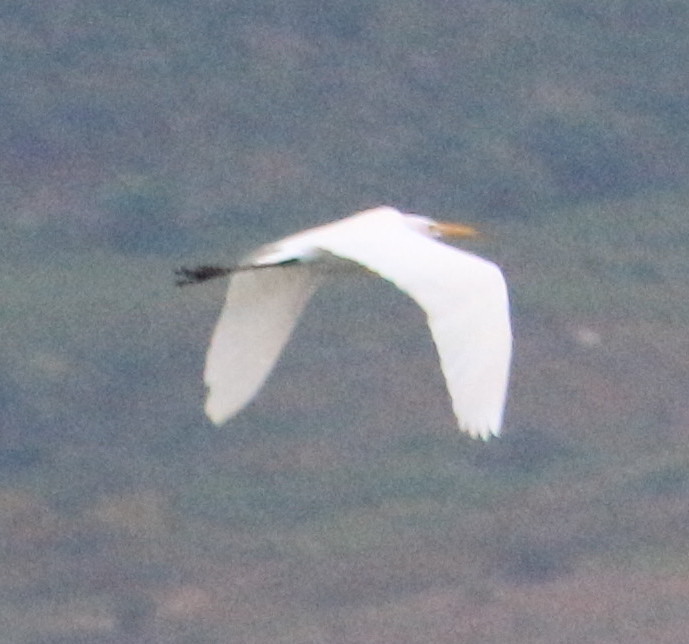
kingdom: Animalia
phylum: Chordata
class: Aves
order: Pelecaniformes
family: Ardeidae
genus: Ardea
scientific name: Ardea alba
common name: Great egret
